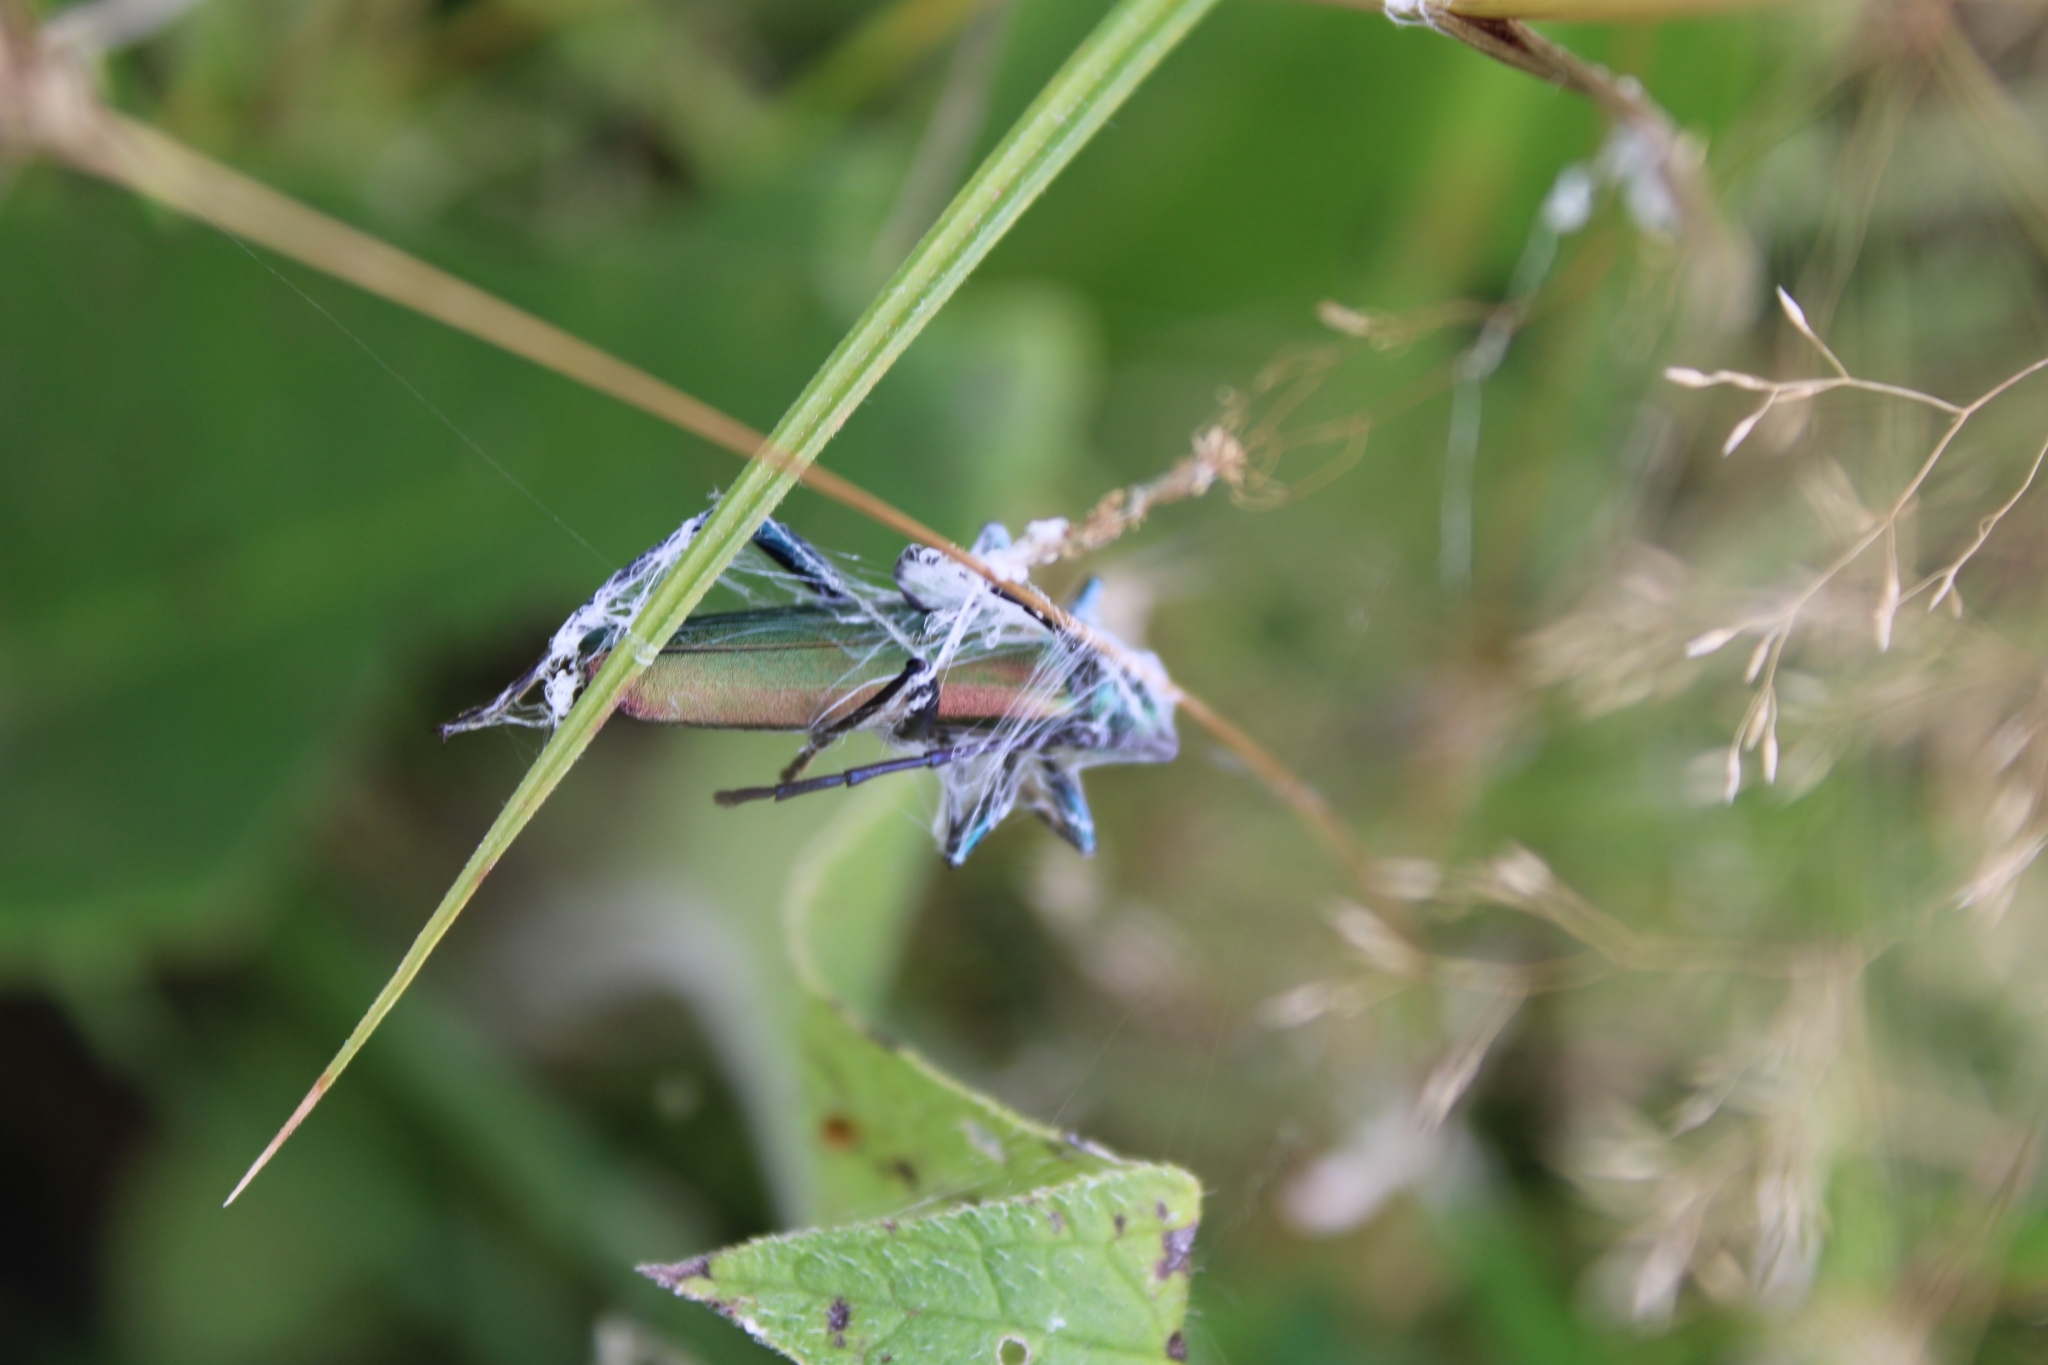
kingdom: Animalia
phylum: Arthropoda
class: Insecta
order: Coleoptera
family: Cerambycidae
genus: Aromia
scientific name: Aromia moschata
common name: Musk beetle
